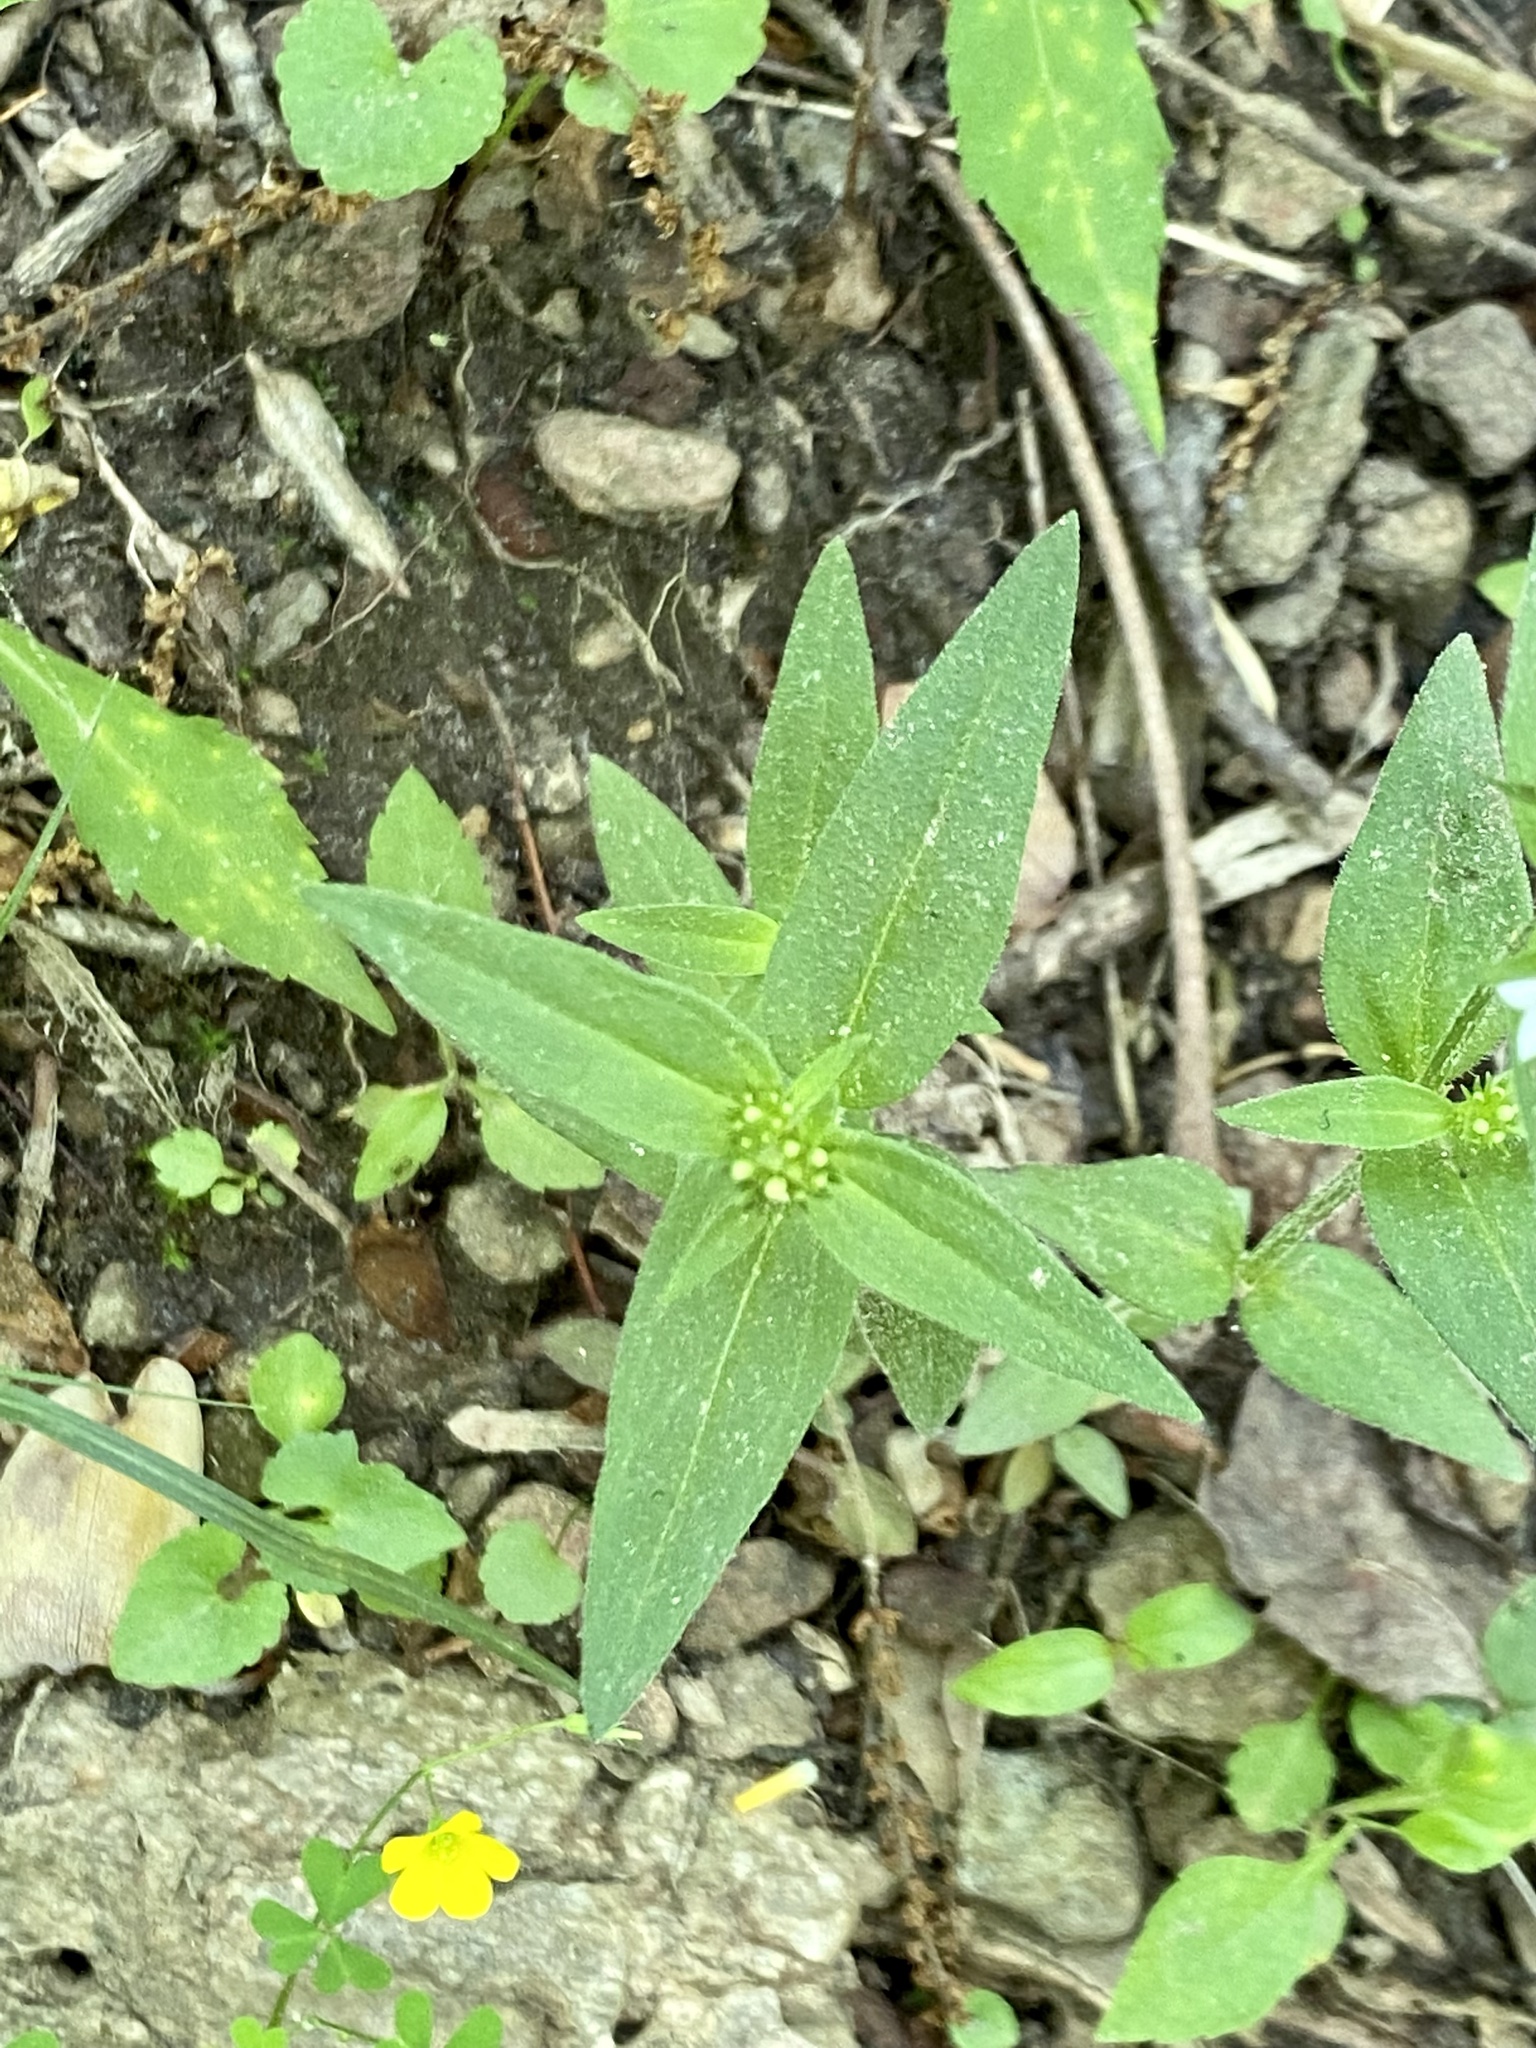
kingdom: Plantae
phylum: Tracheophyta
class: Magnoliopsida
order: Gentianales
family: Rubiaceae
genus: Houstonia
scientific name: Houstonia purpurea
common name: Summer bluet
